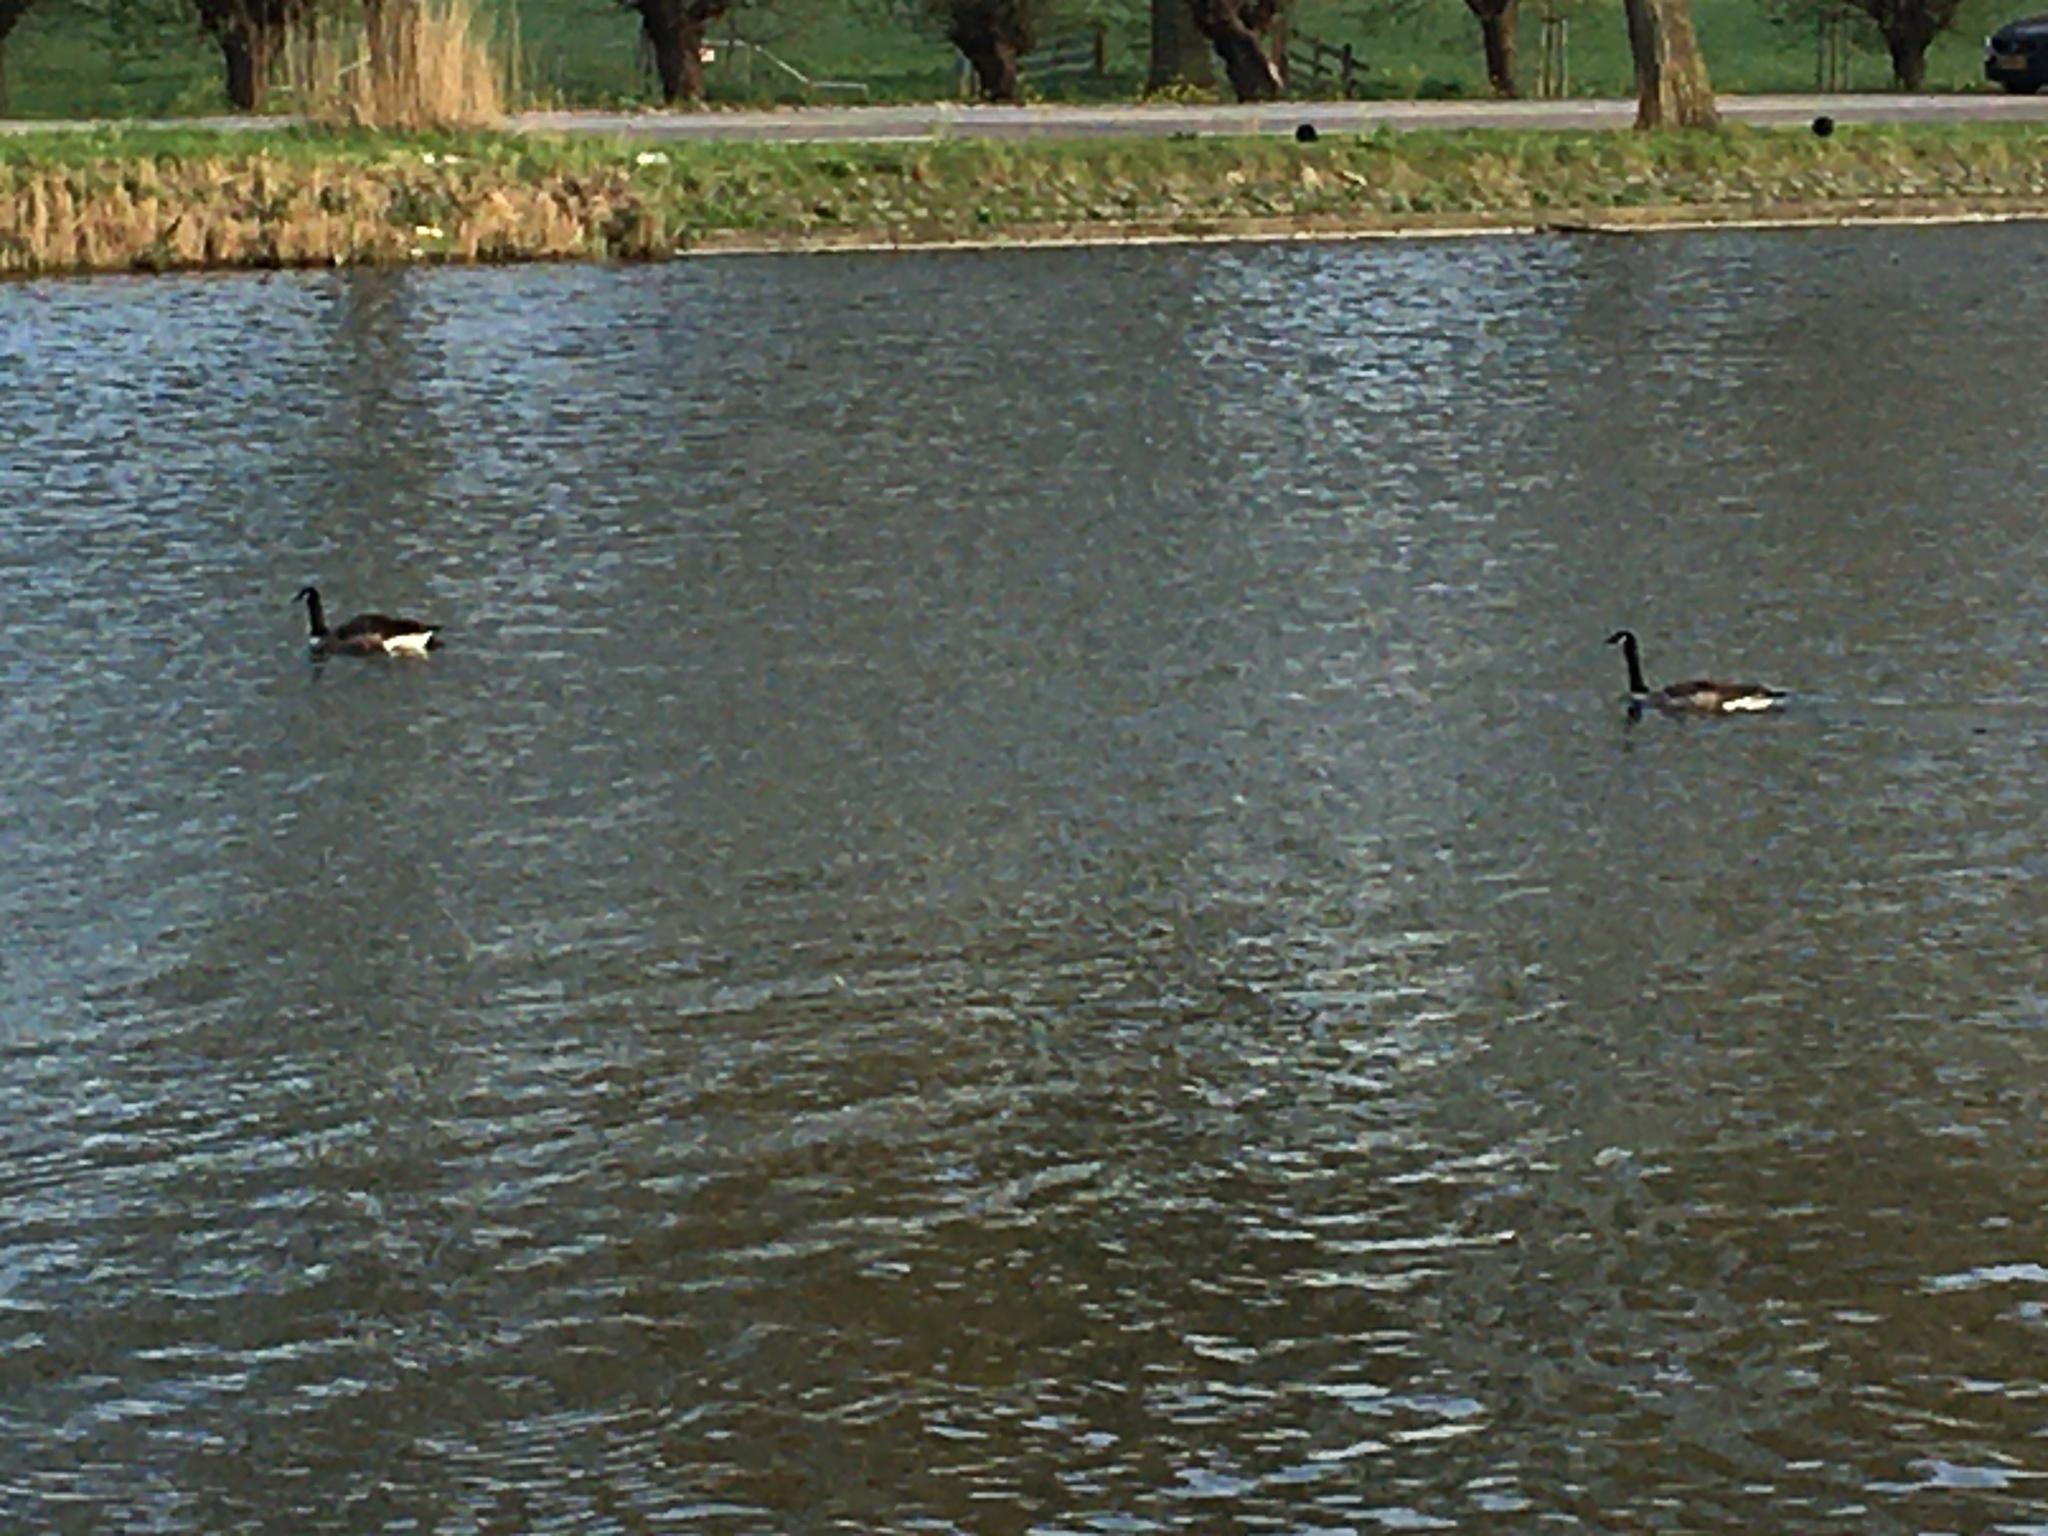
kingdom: Animalia
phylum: Chordata
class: Aves
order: Anseriformes
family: Anatidae
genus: Branta
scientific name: Branta canadensis
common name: Canada goose
